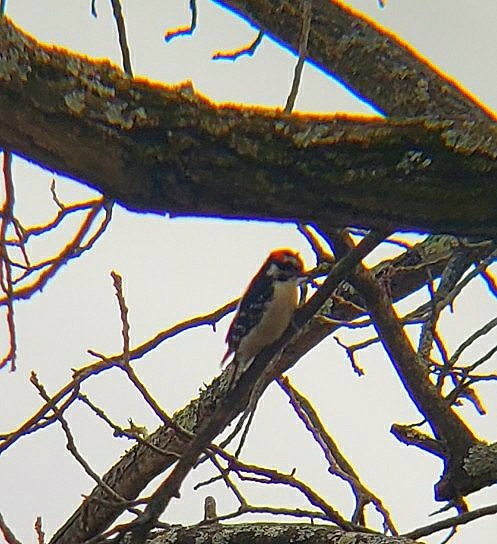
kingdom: Animalia
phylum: Chordata
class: Aves
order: Piciformes
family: Picidae
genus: Dryobates
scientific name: Dryobates pubescens
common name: Downy woodpecker
